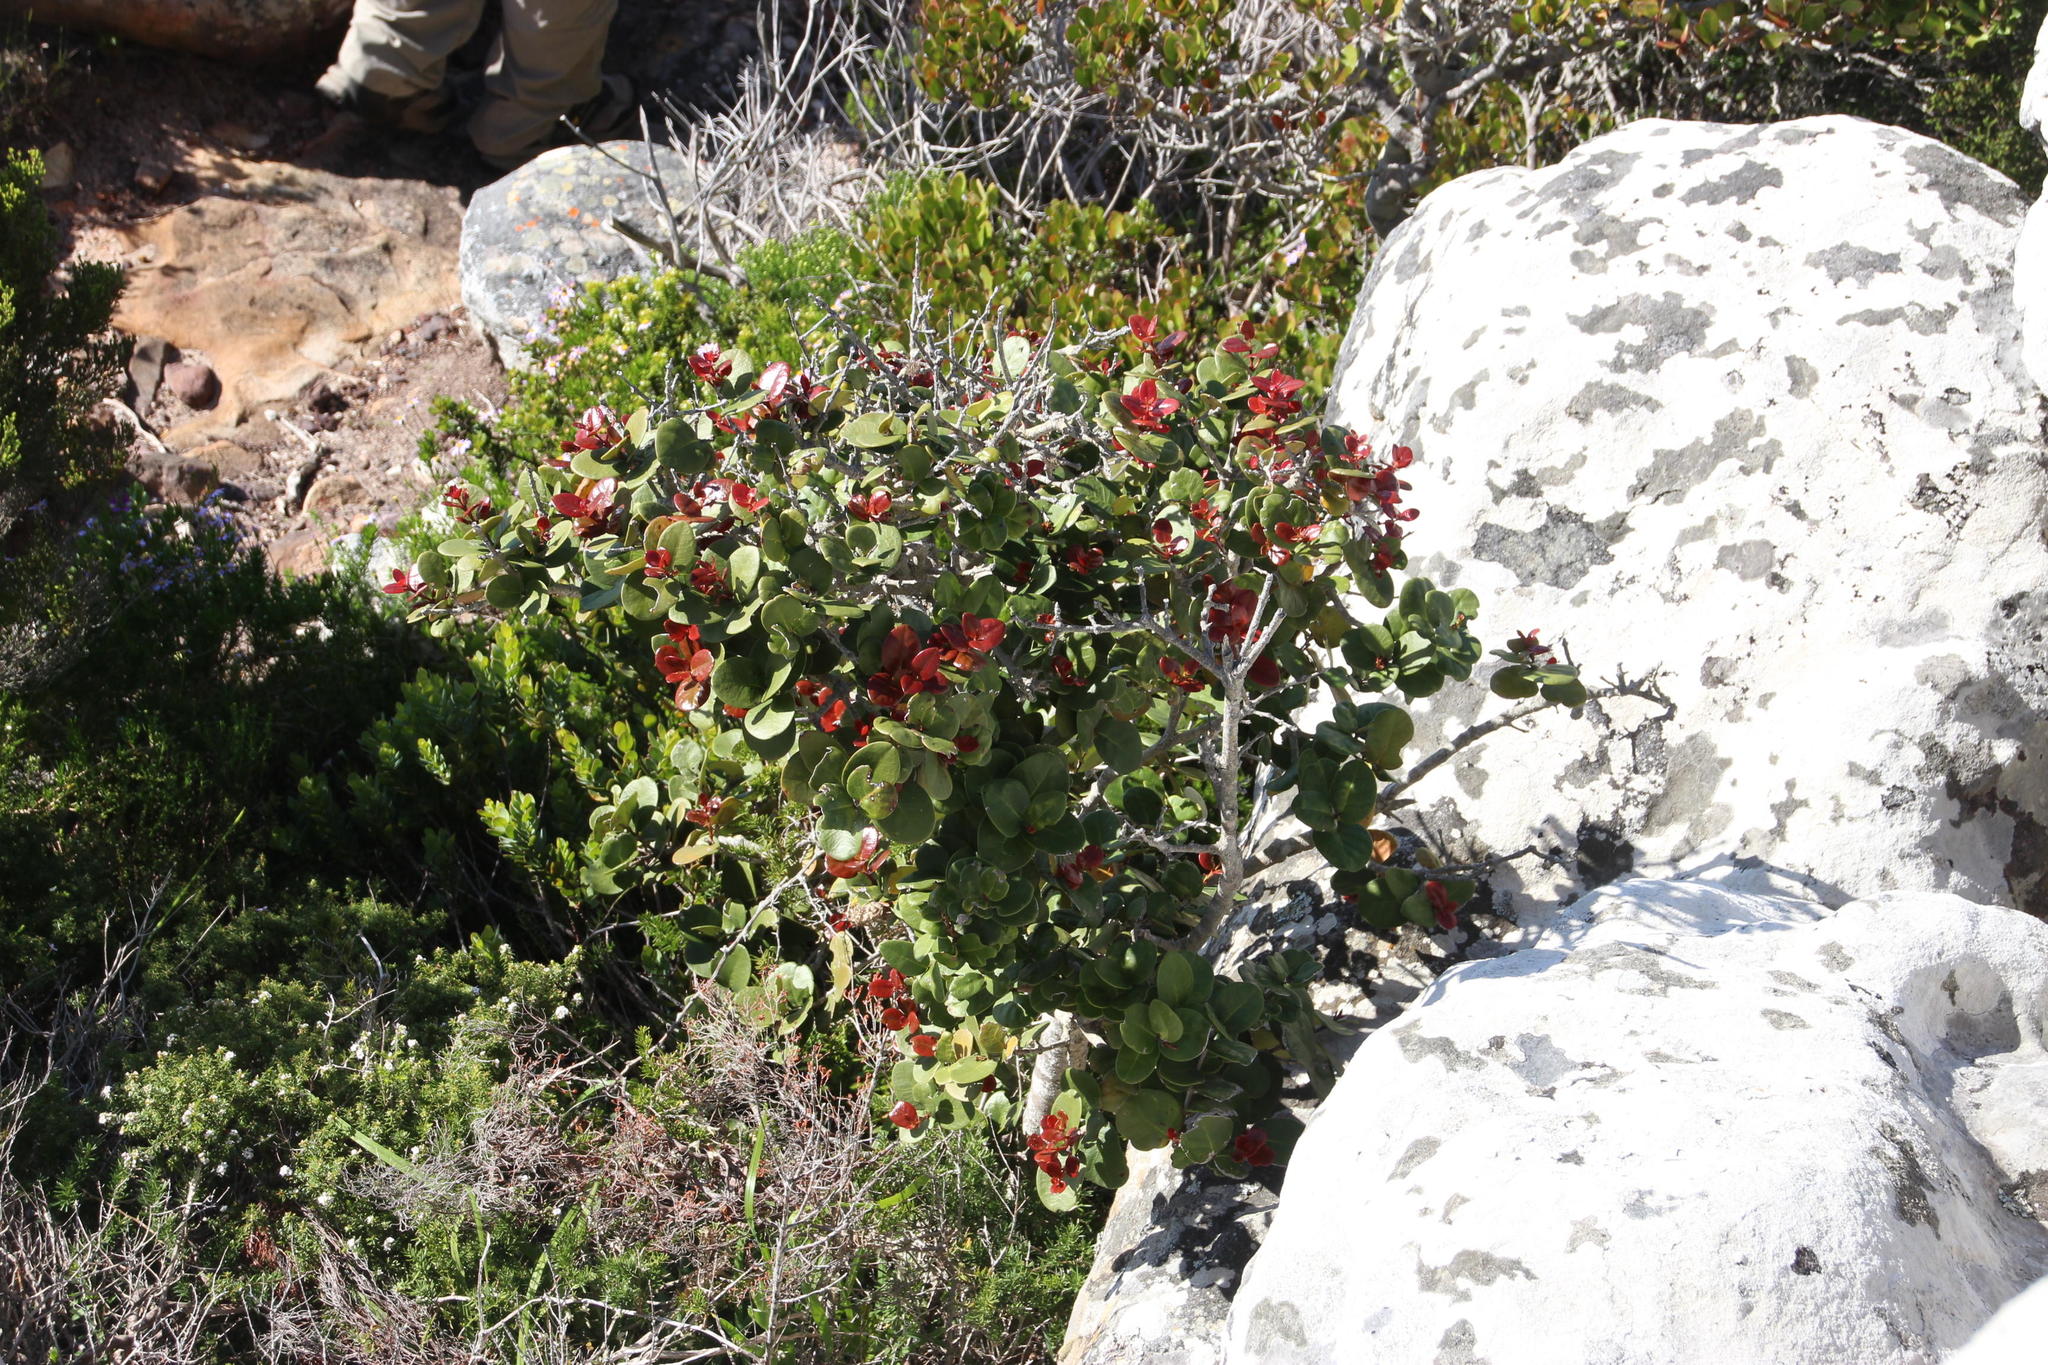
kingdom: Plantae
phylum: Tracheophyta
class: Magnoliopsida
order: Celastrales
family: Celastraceae
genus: Maurocenia
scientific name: Maurocenia frangula
